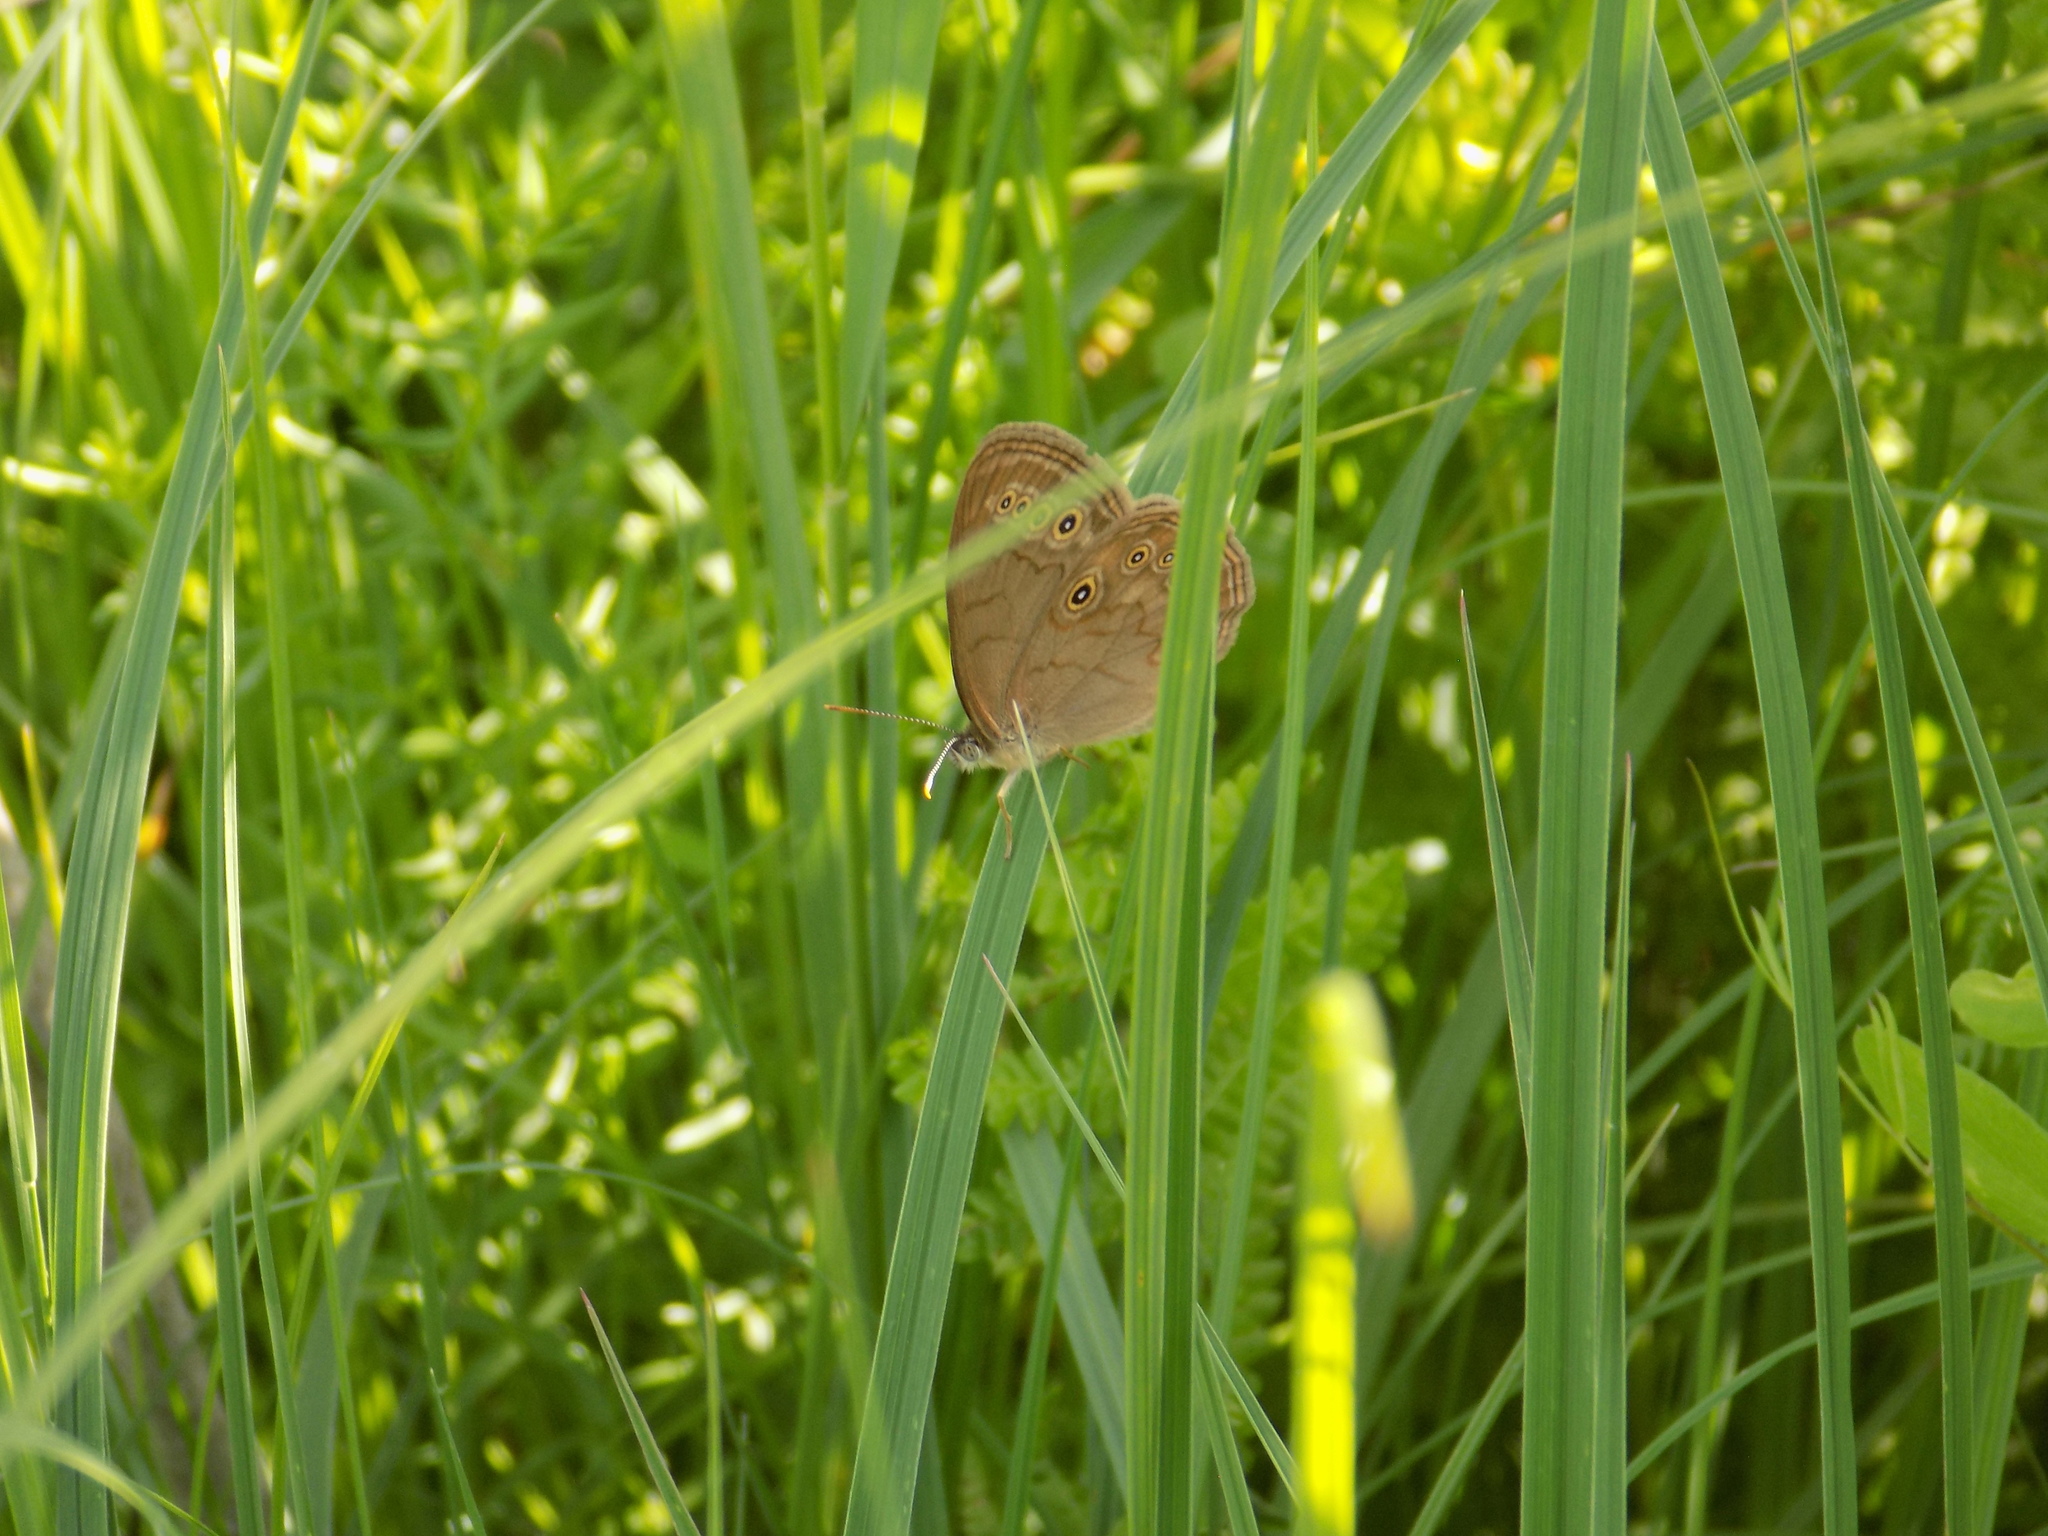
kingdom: Animalia
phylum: Arthropoda
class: Insecta
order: Lepidoptera
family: Nymphalidae
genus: Lethe
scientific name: Lethe eurydice
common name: Eyed brown
